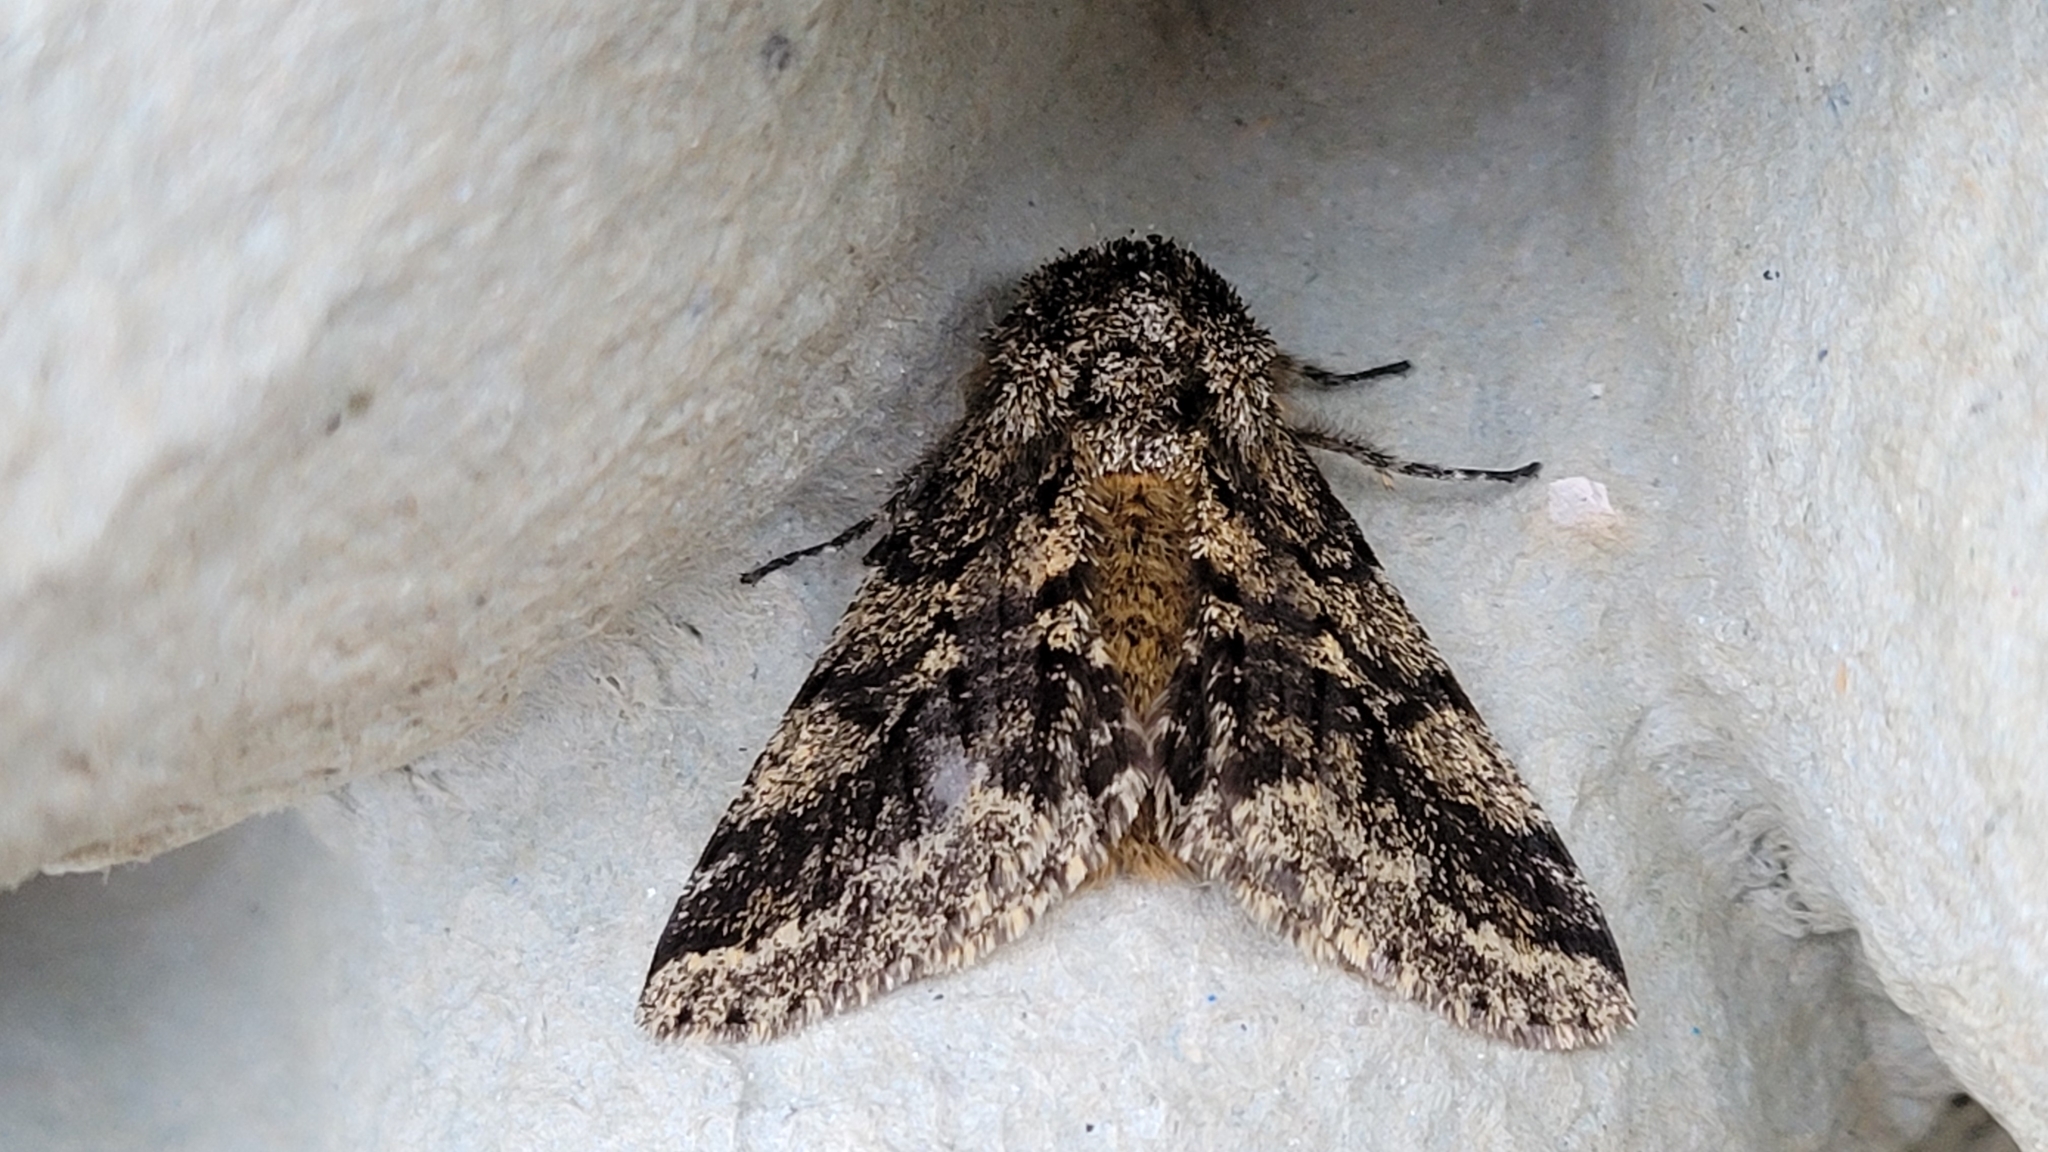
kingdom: Animalia
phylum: Arthropoda
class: Insecta
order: Lepidoptera
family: Geometridae
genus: Lycia
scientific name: Lycia hirtaria
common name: Brindled beauty
